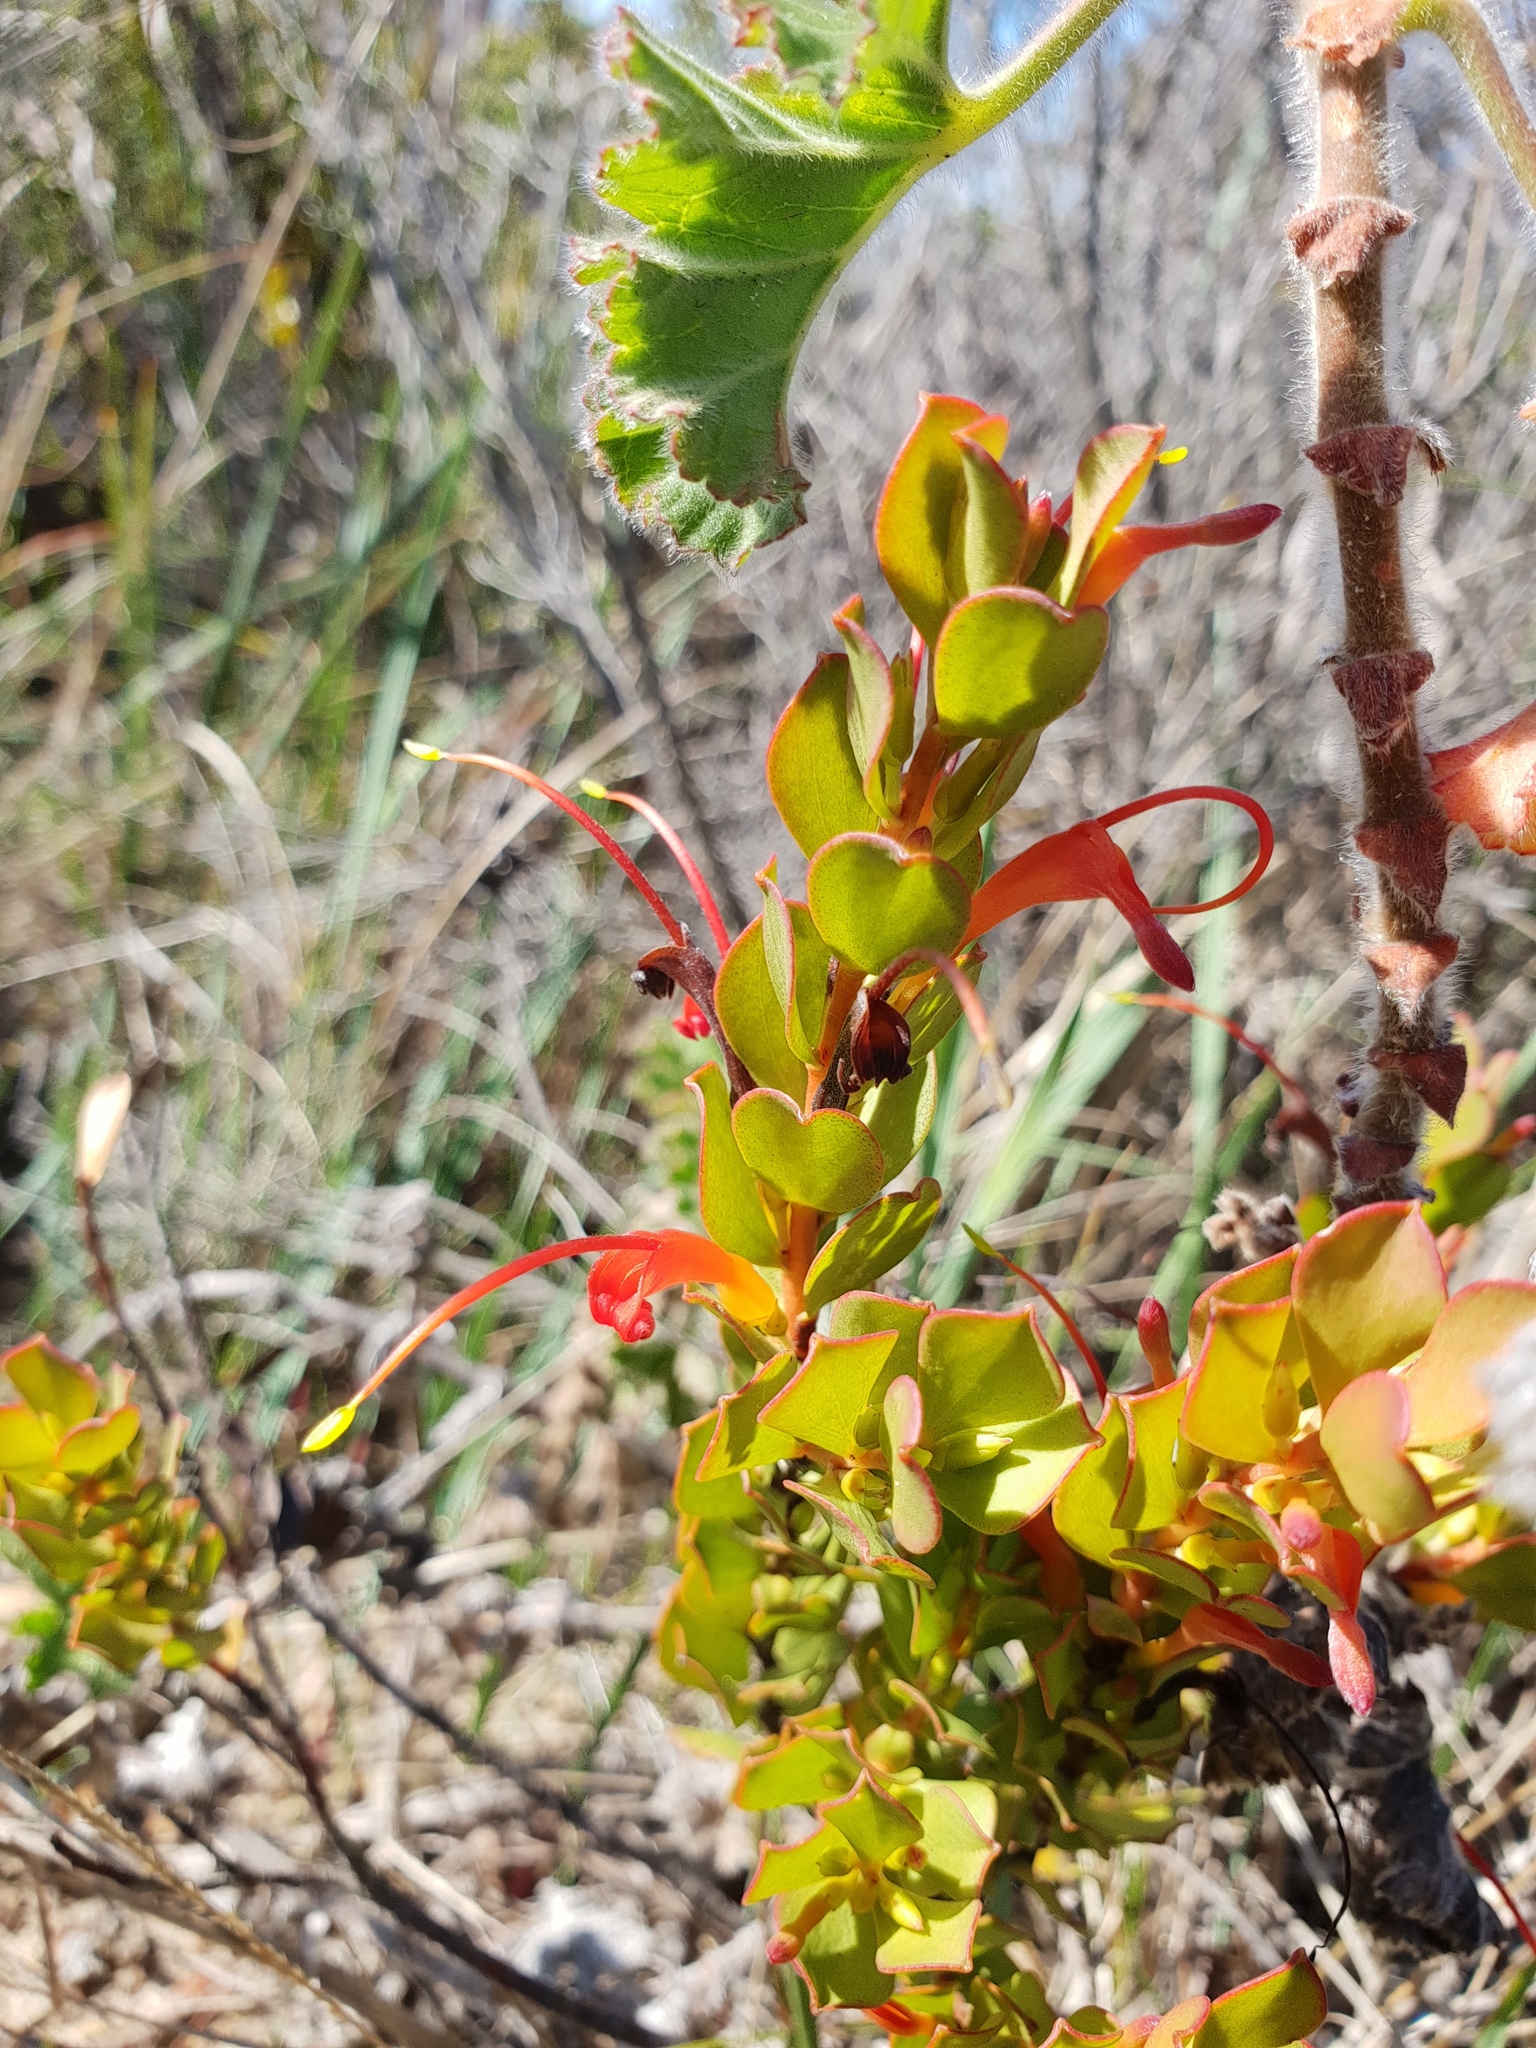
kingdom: Plantae
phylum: Tracheophyta
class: Magnoliopsida
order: Proteales
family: Proteaceae
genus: Adenanthos
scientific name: Adenanthos obovatus
